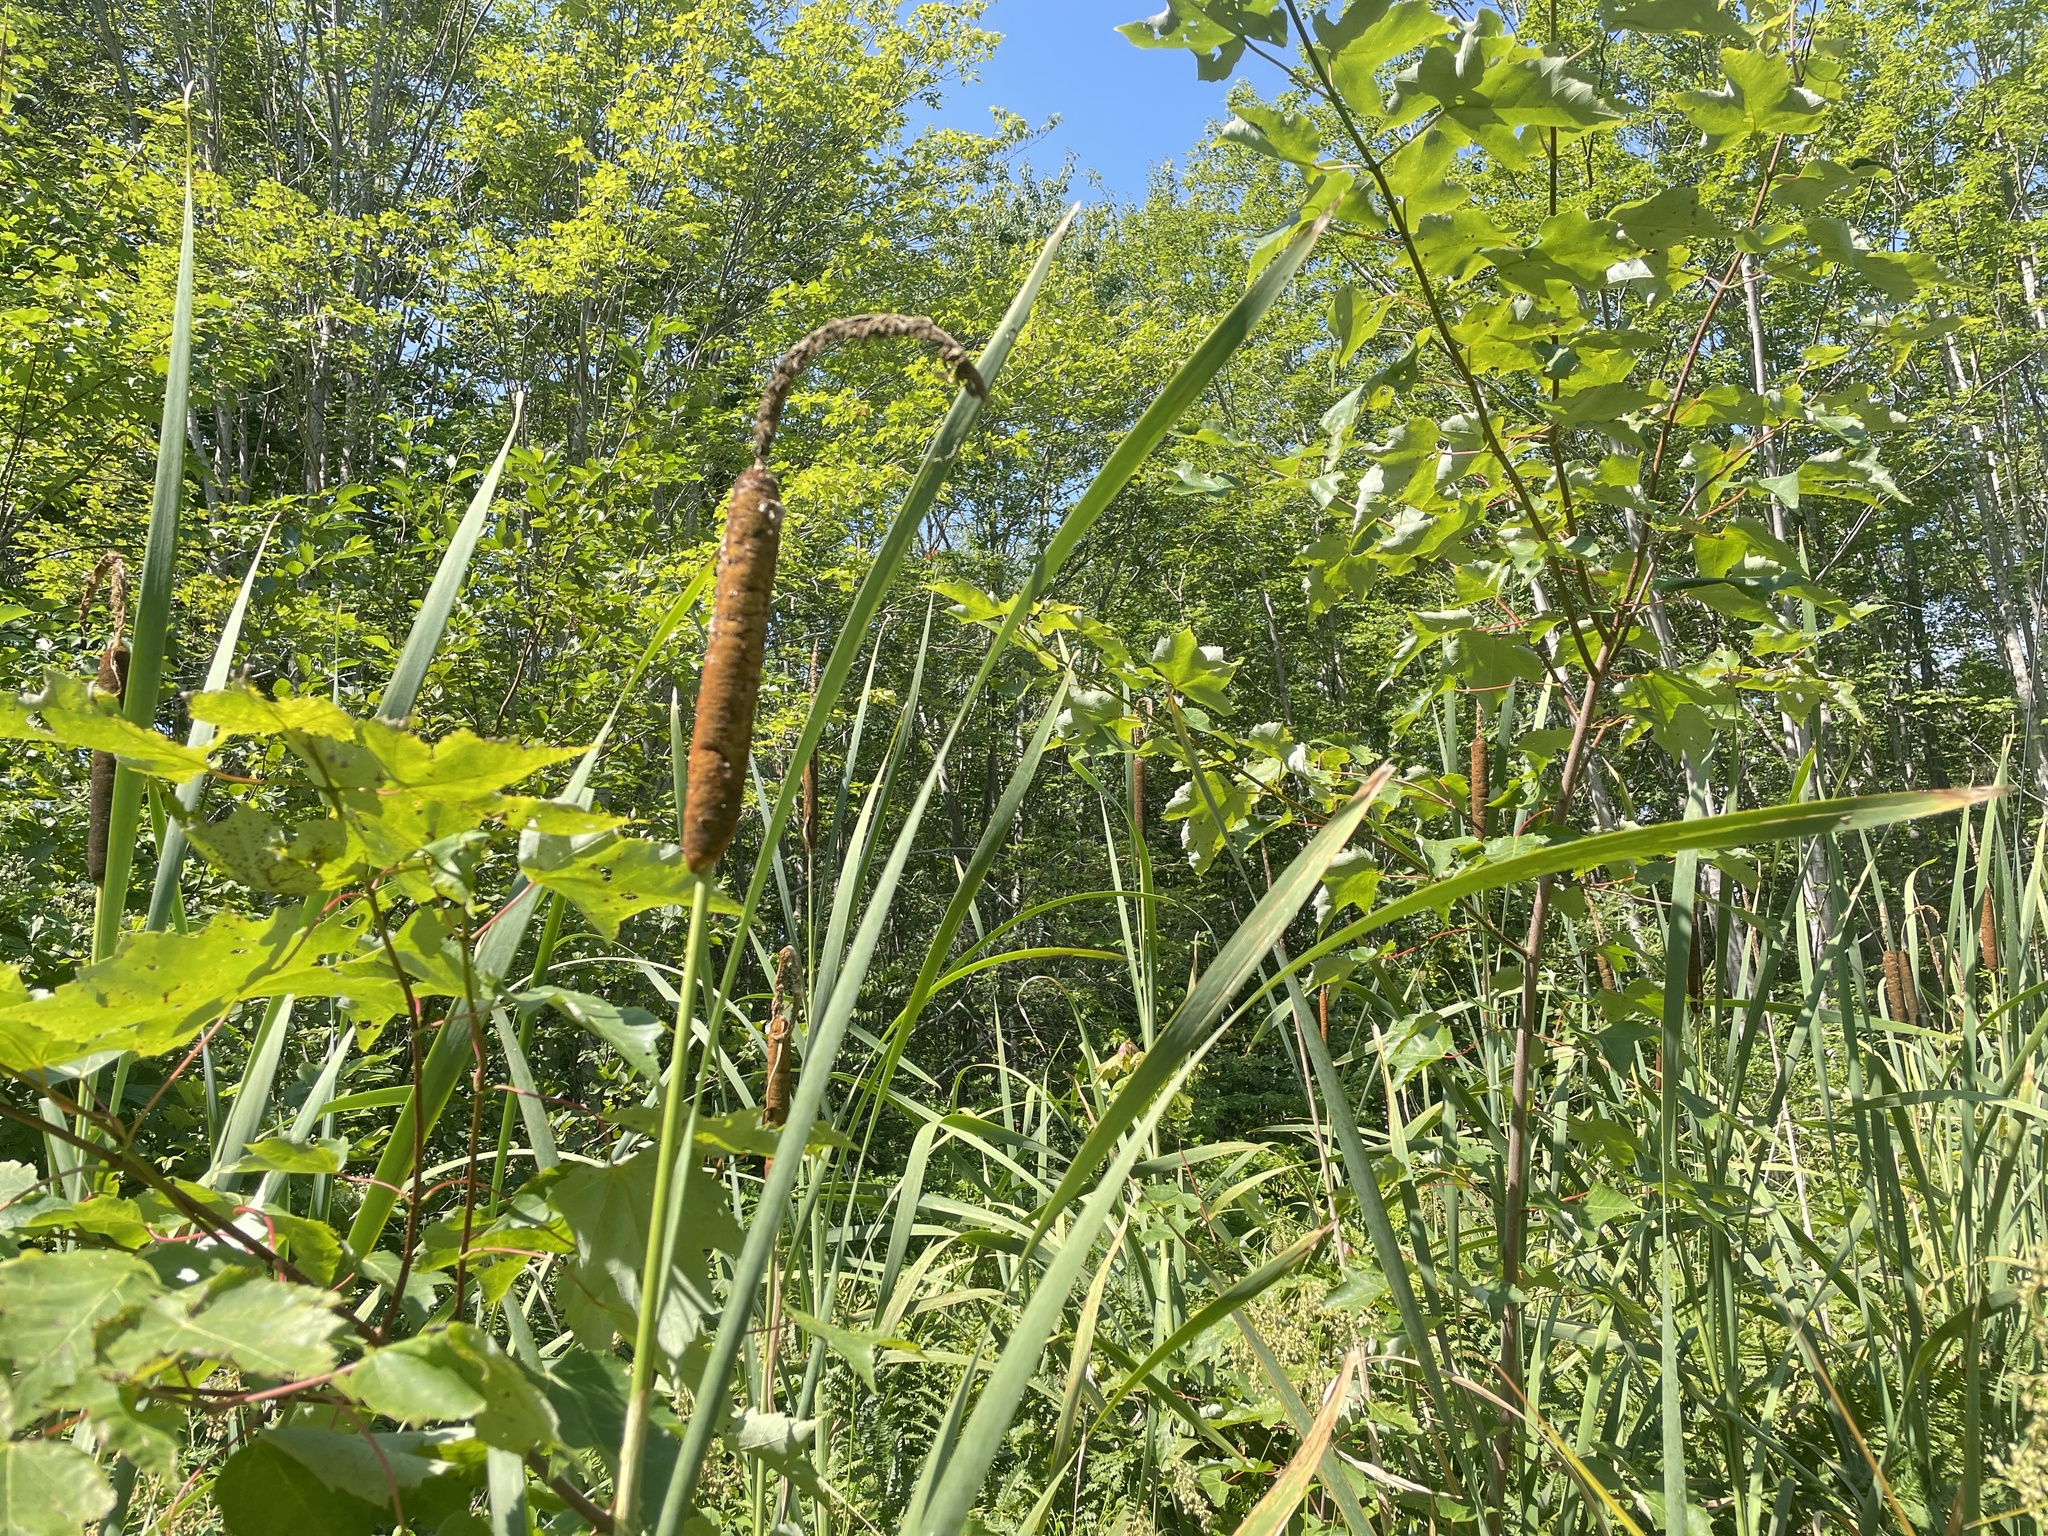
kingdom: Plantae
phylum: Tracheophyta
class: Liliopsida
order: Poales
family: Typhaceae
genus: Typha
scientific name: Typha latifolia
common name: Broadleaf cattail
